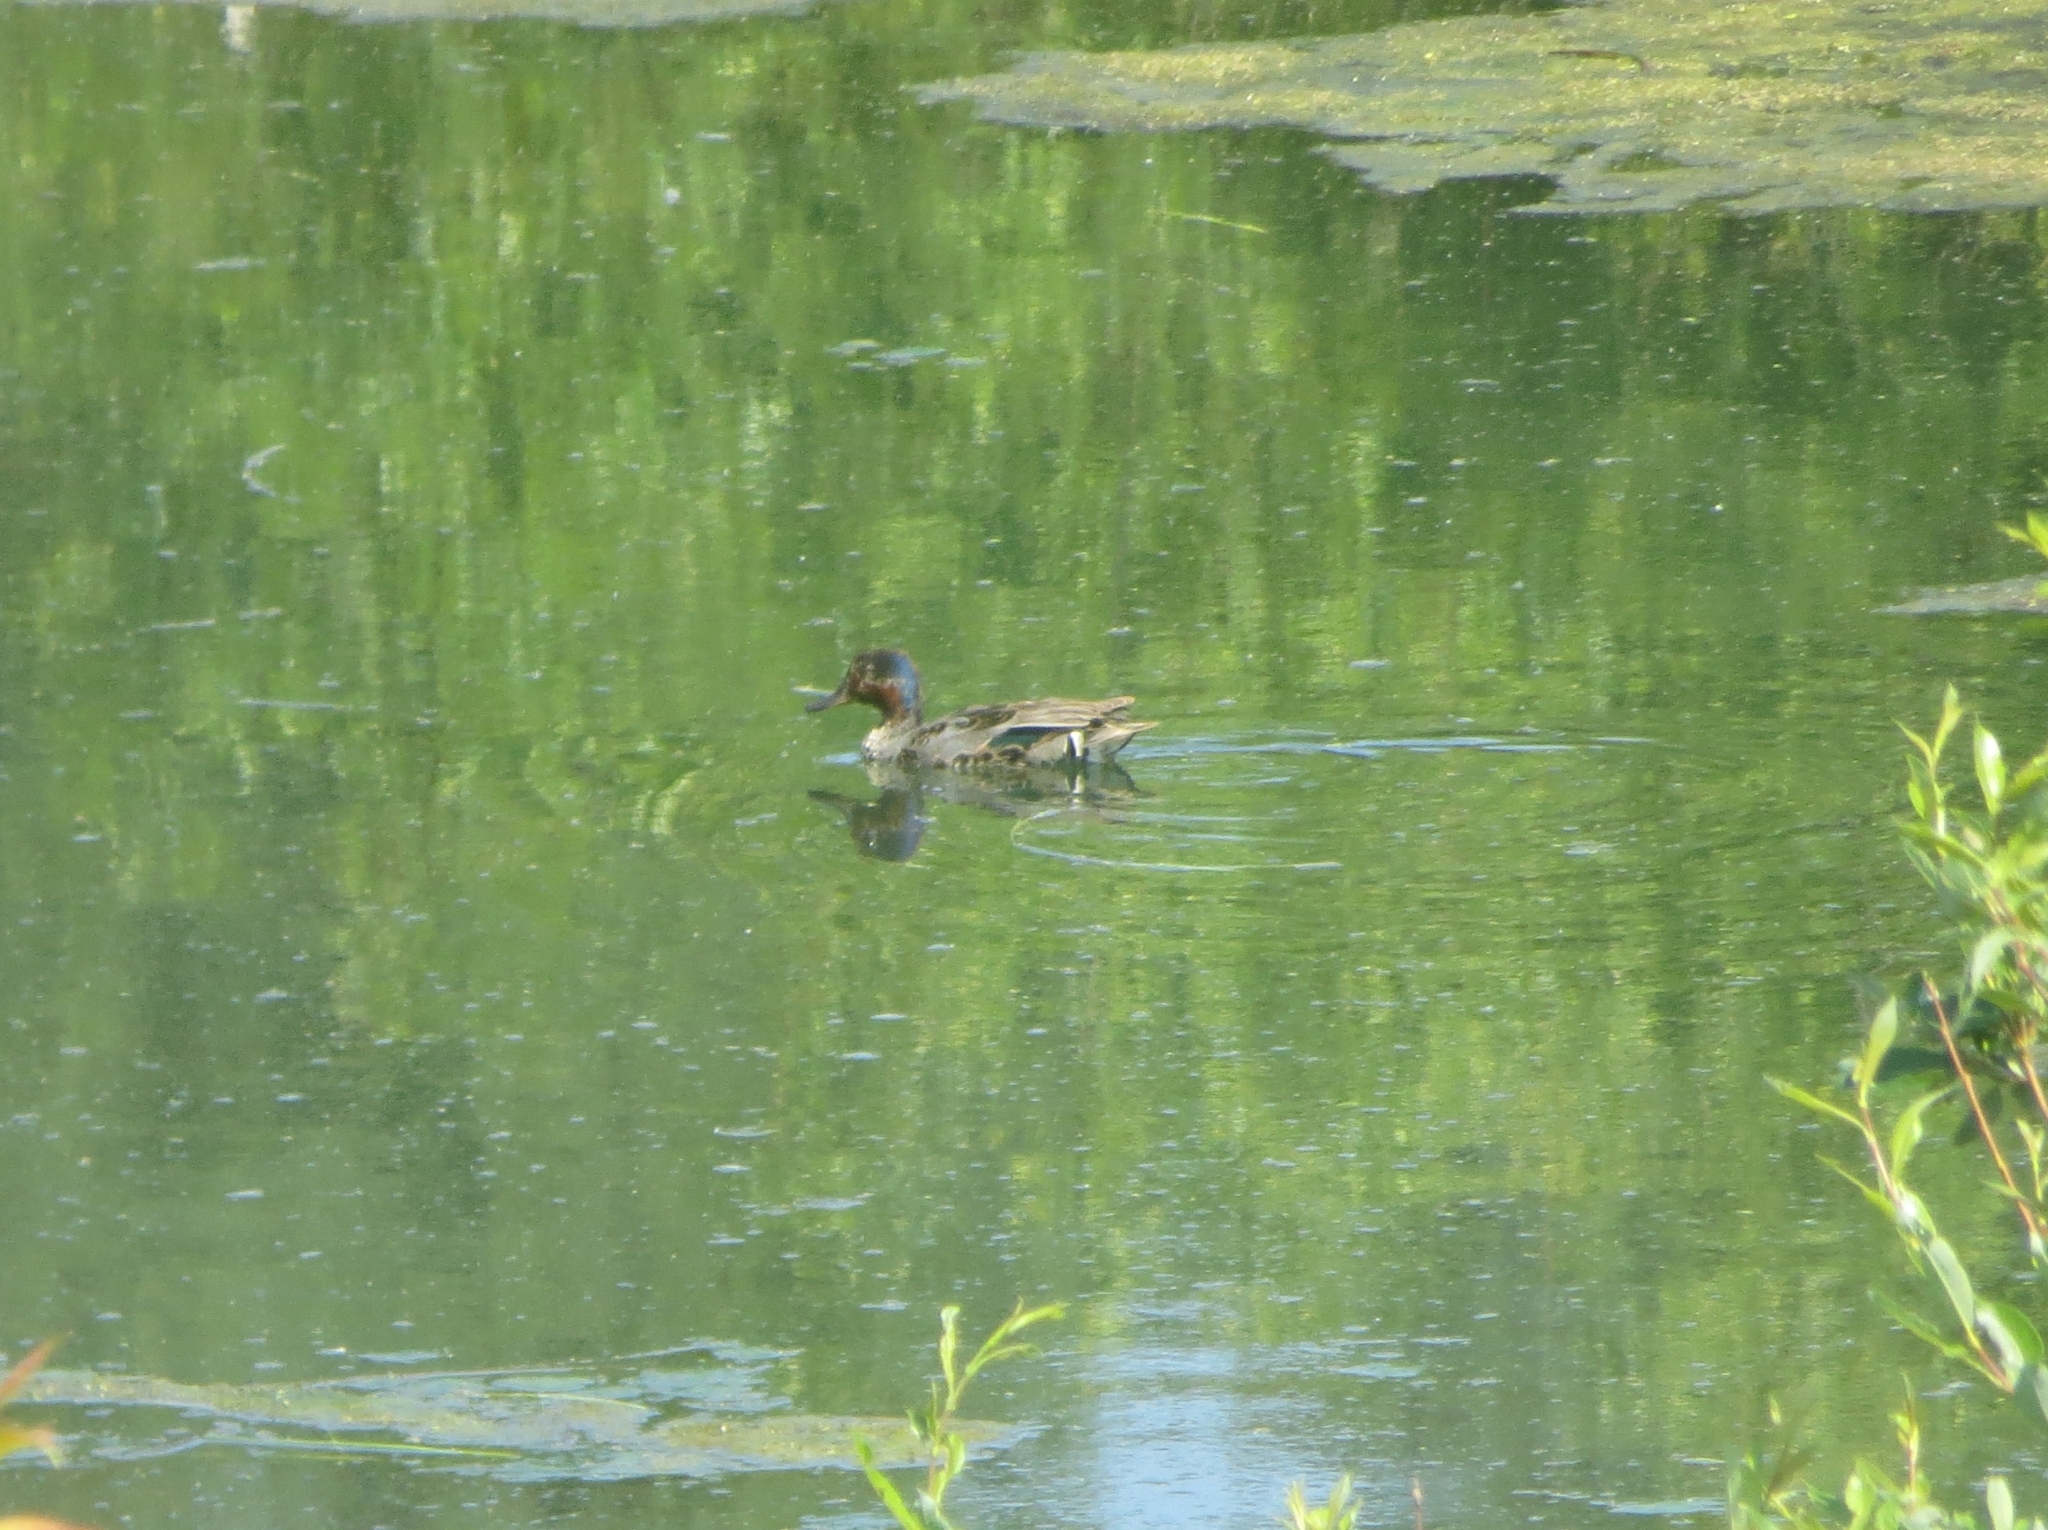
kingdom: Animalia
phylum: Chordata
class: Aves
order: Anseriformes
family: Anatidae
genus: Anas
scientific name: Anas crecca
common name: Eurasian teal
